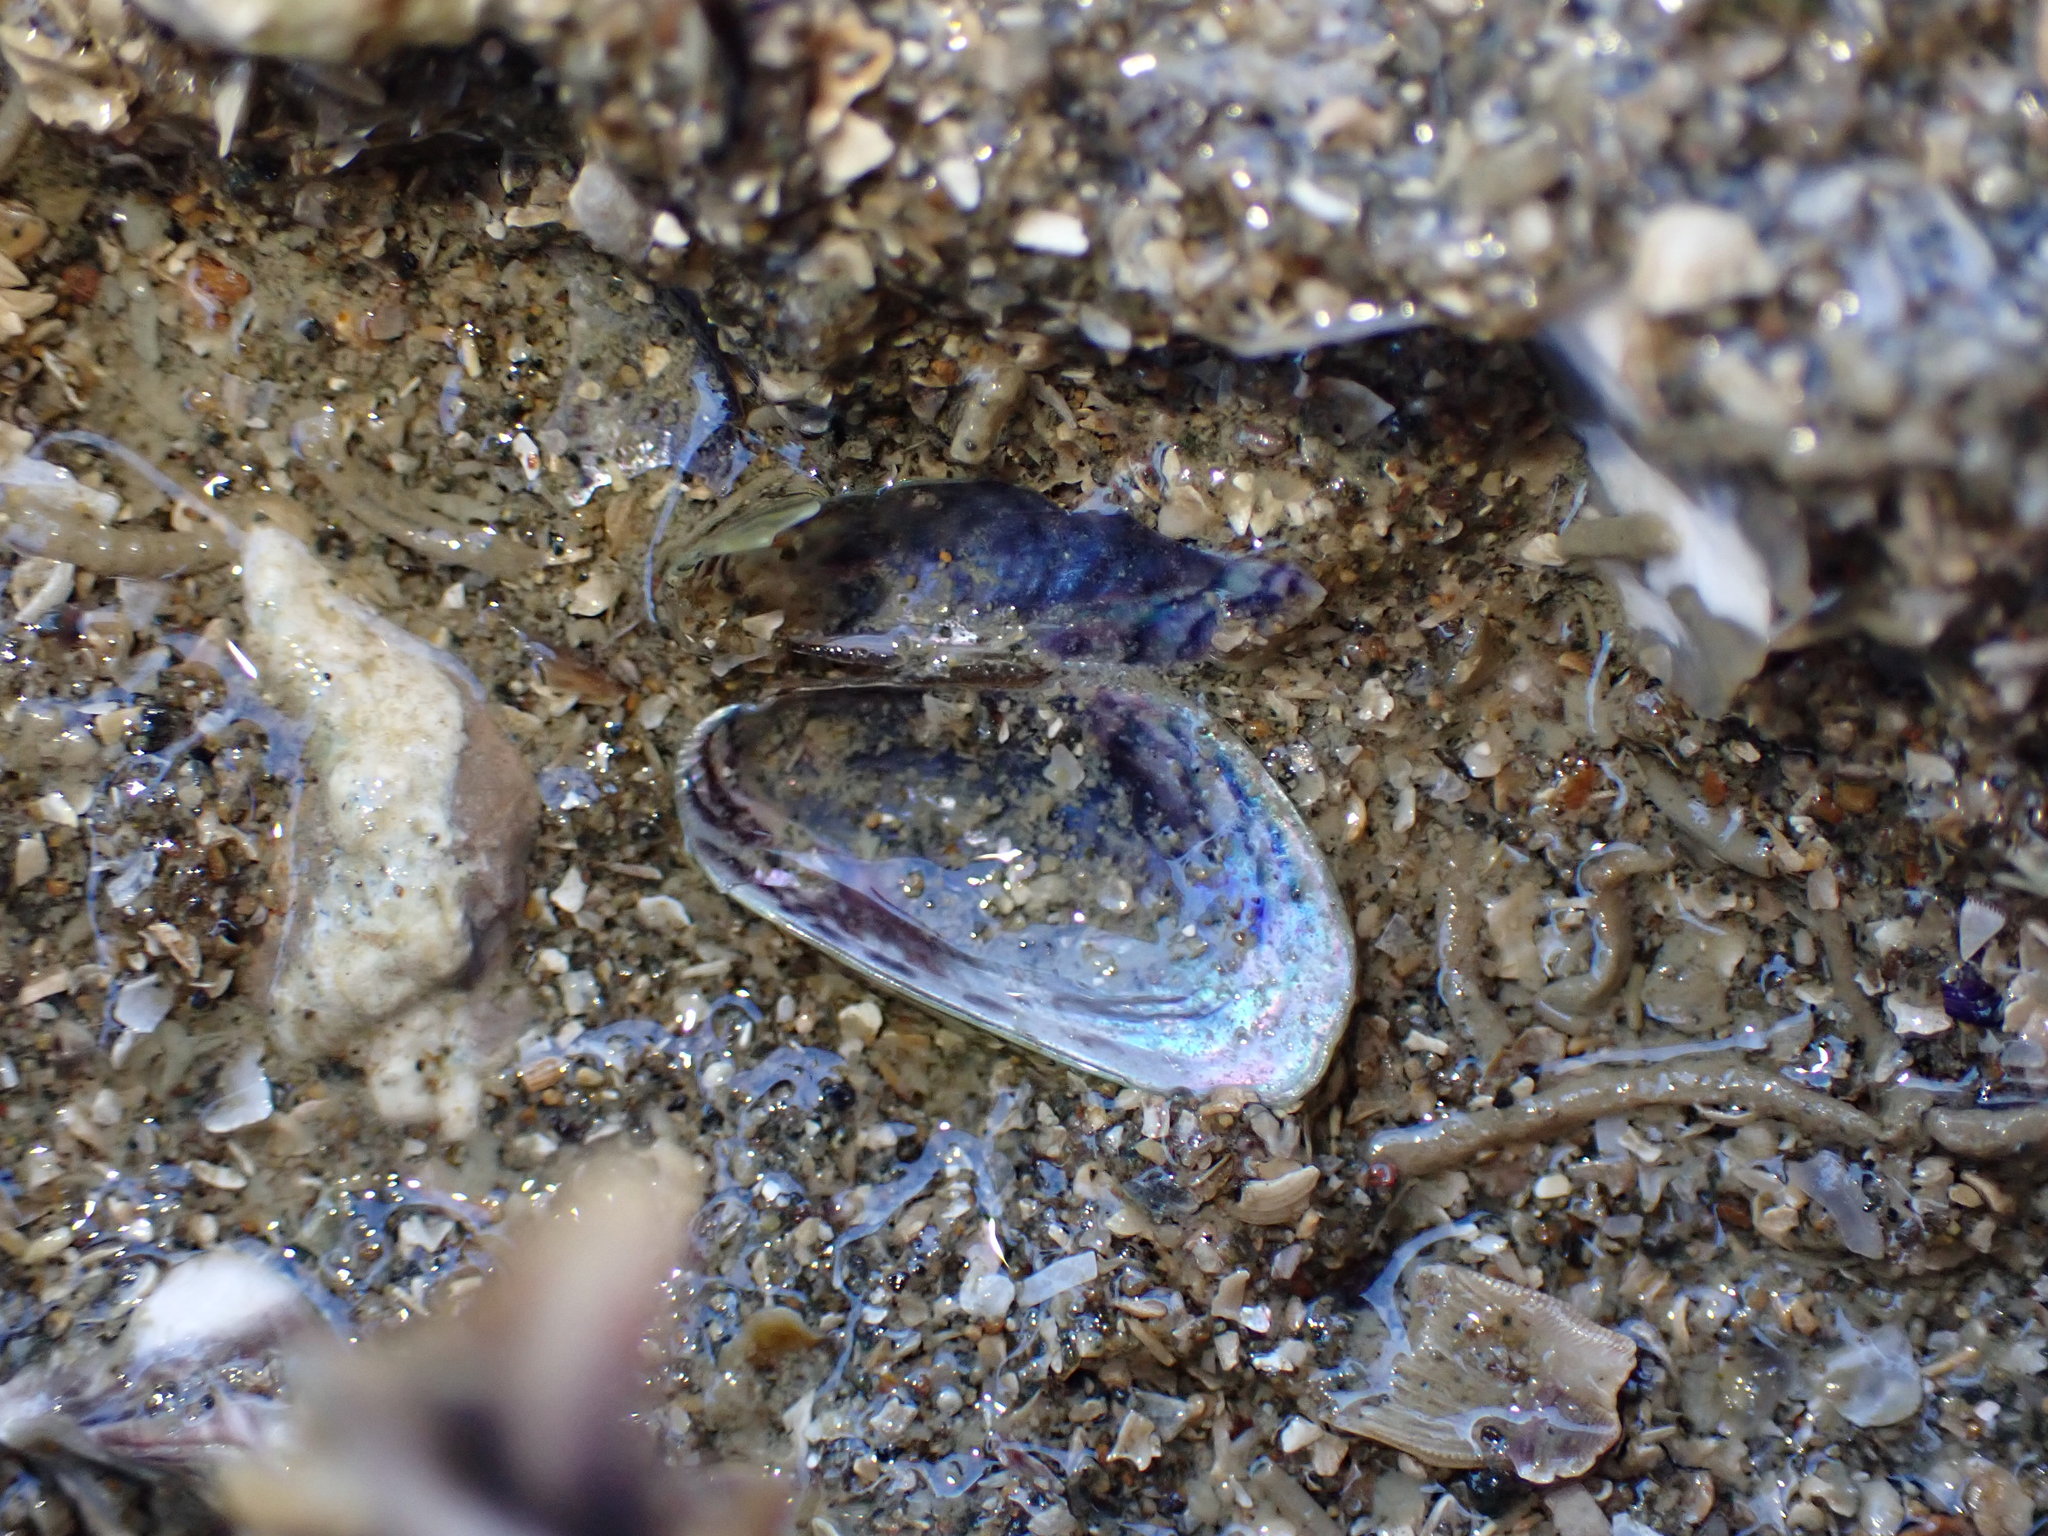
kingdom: Animalia
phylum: Mollusca
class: Bivalvia
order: Mytilida
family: Mytilidae
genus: Arcuatula
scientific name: Arcuatula senhousia
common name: Asian mussel
